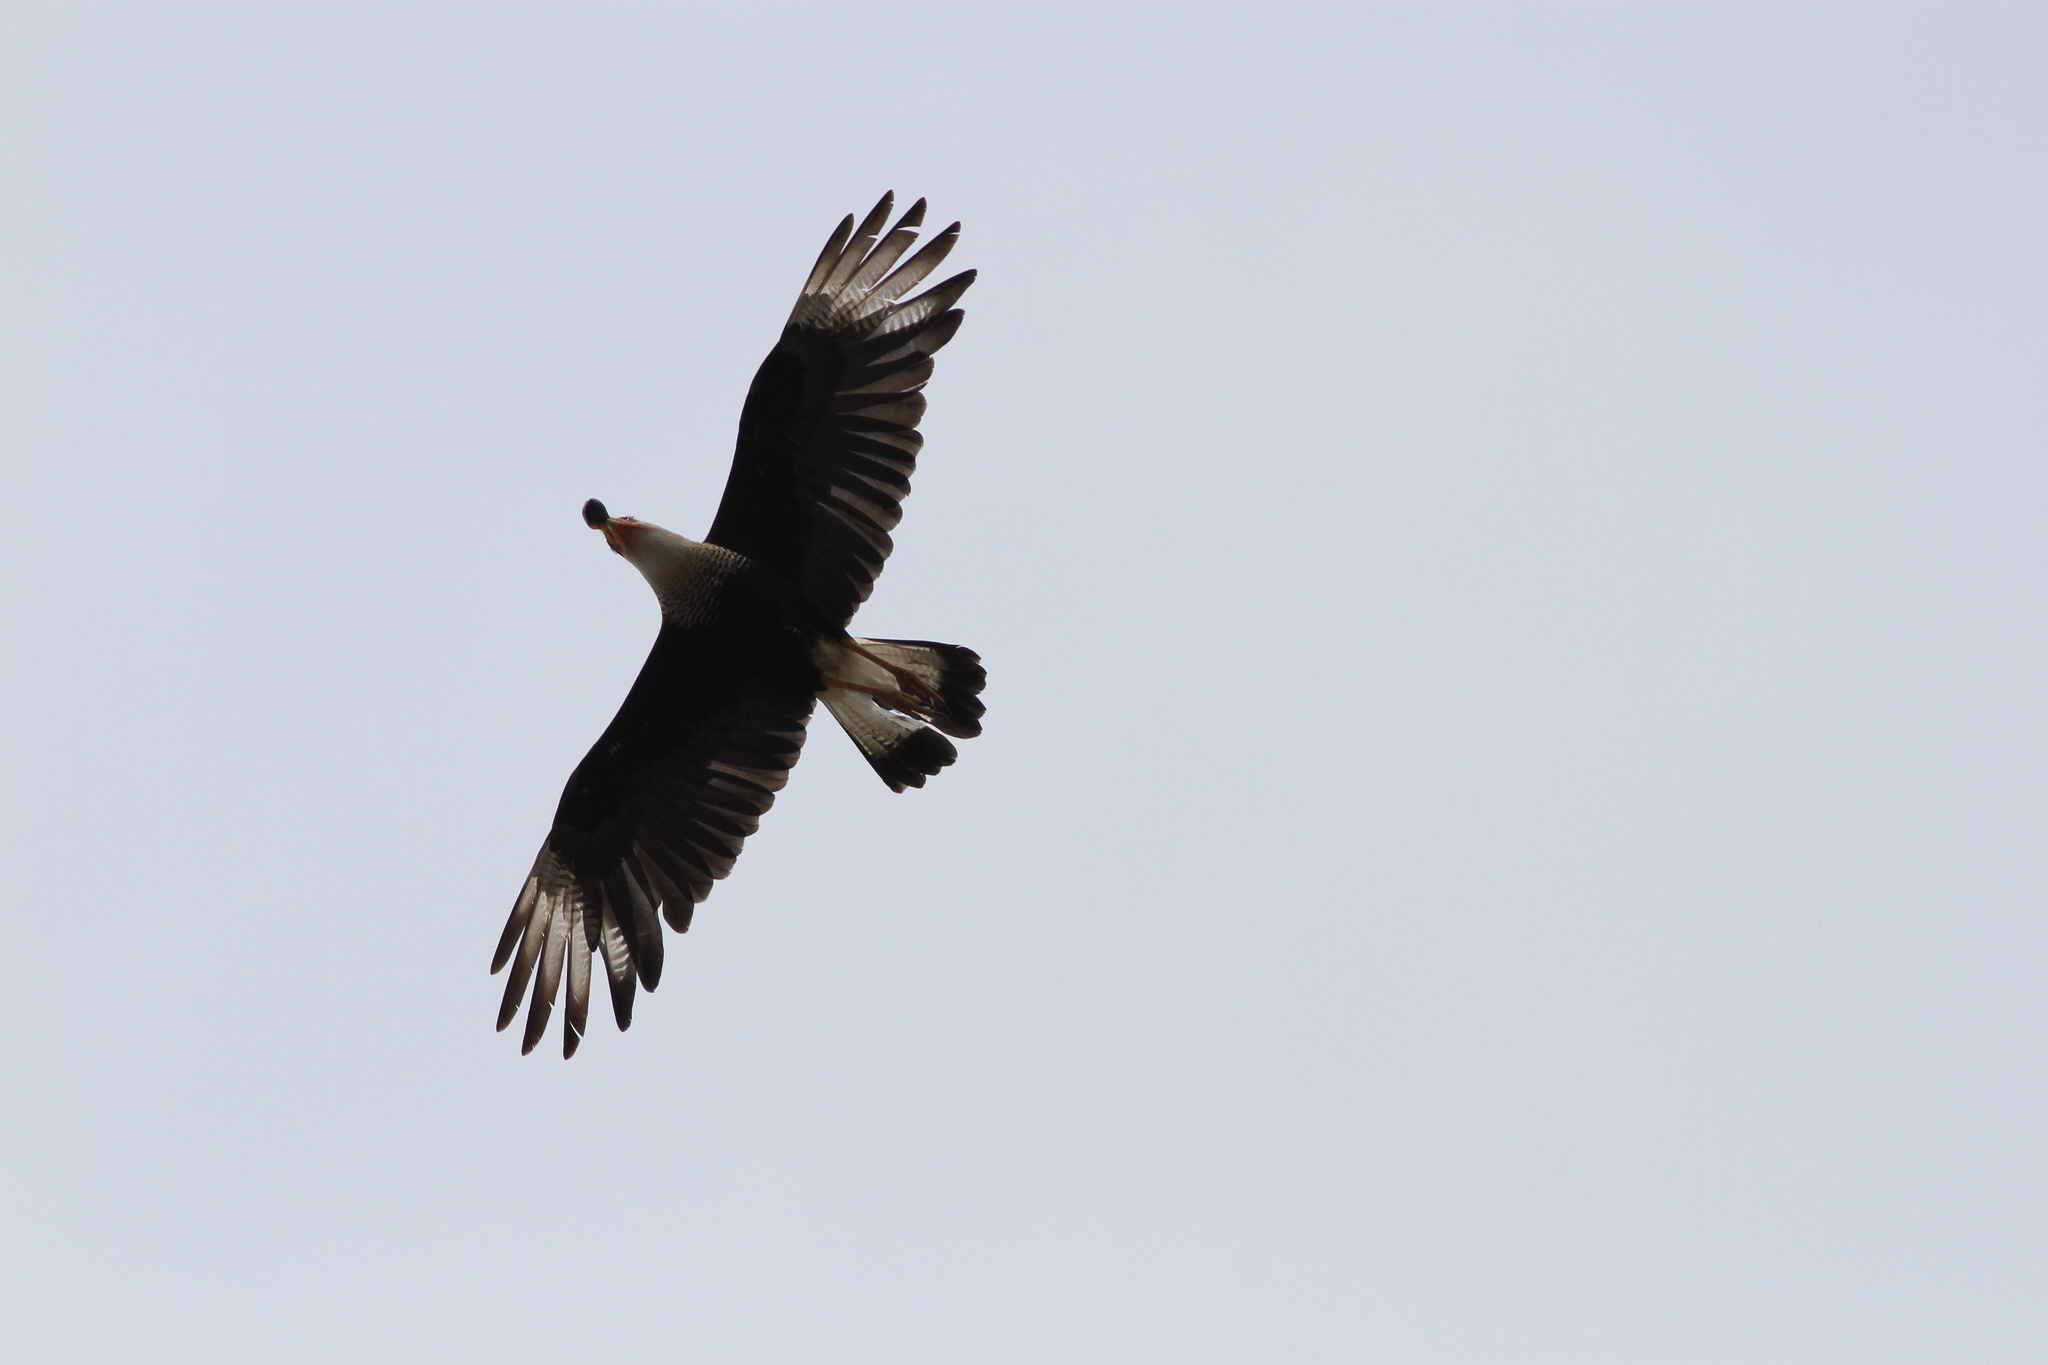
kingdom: Animalia
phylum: Chordata
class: Aves
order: Falconiformes
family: Falconidae
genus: Caracara
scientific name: Caracara plancus
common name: Southern caracara
